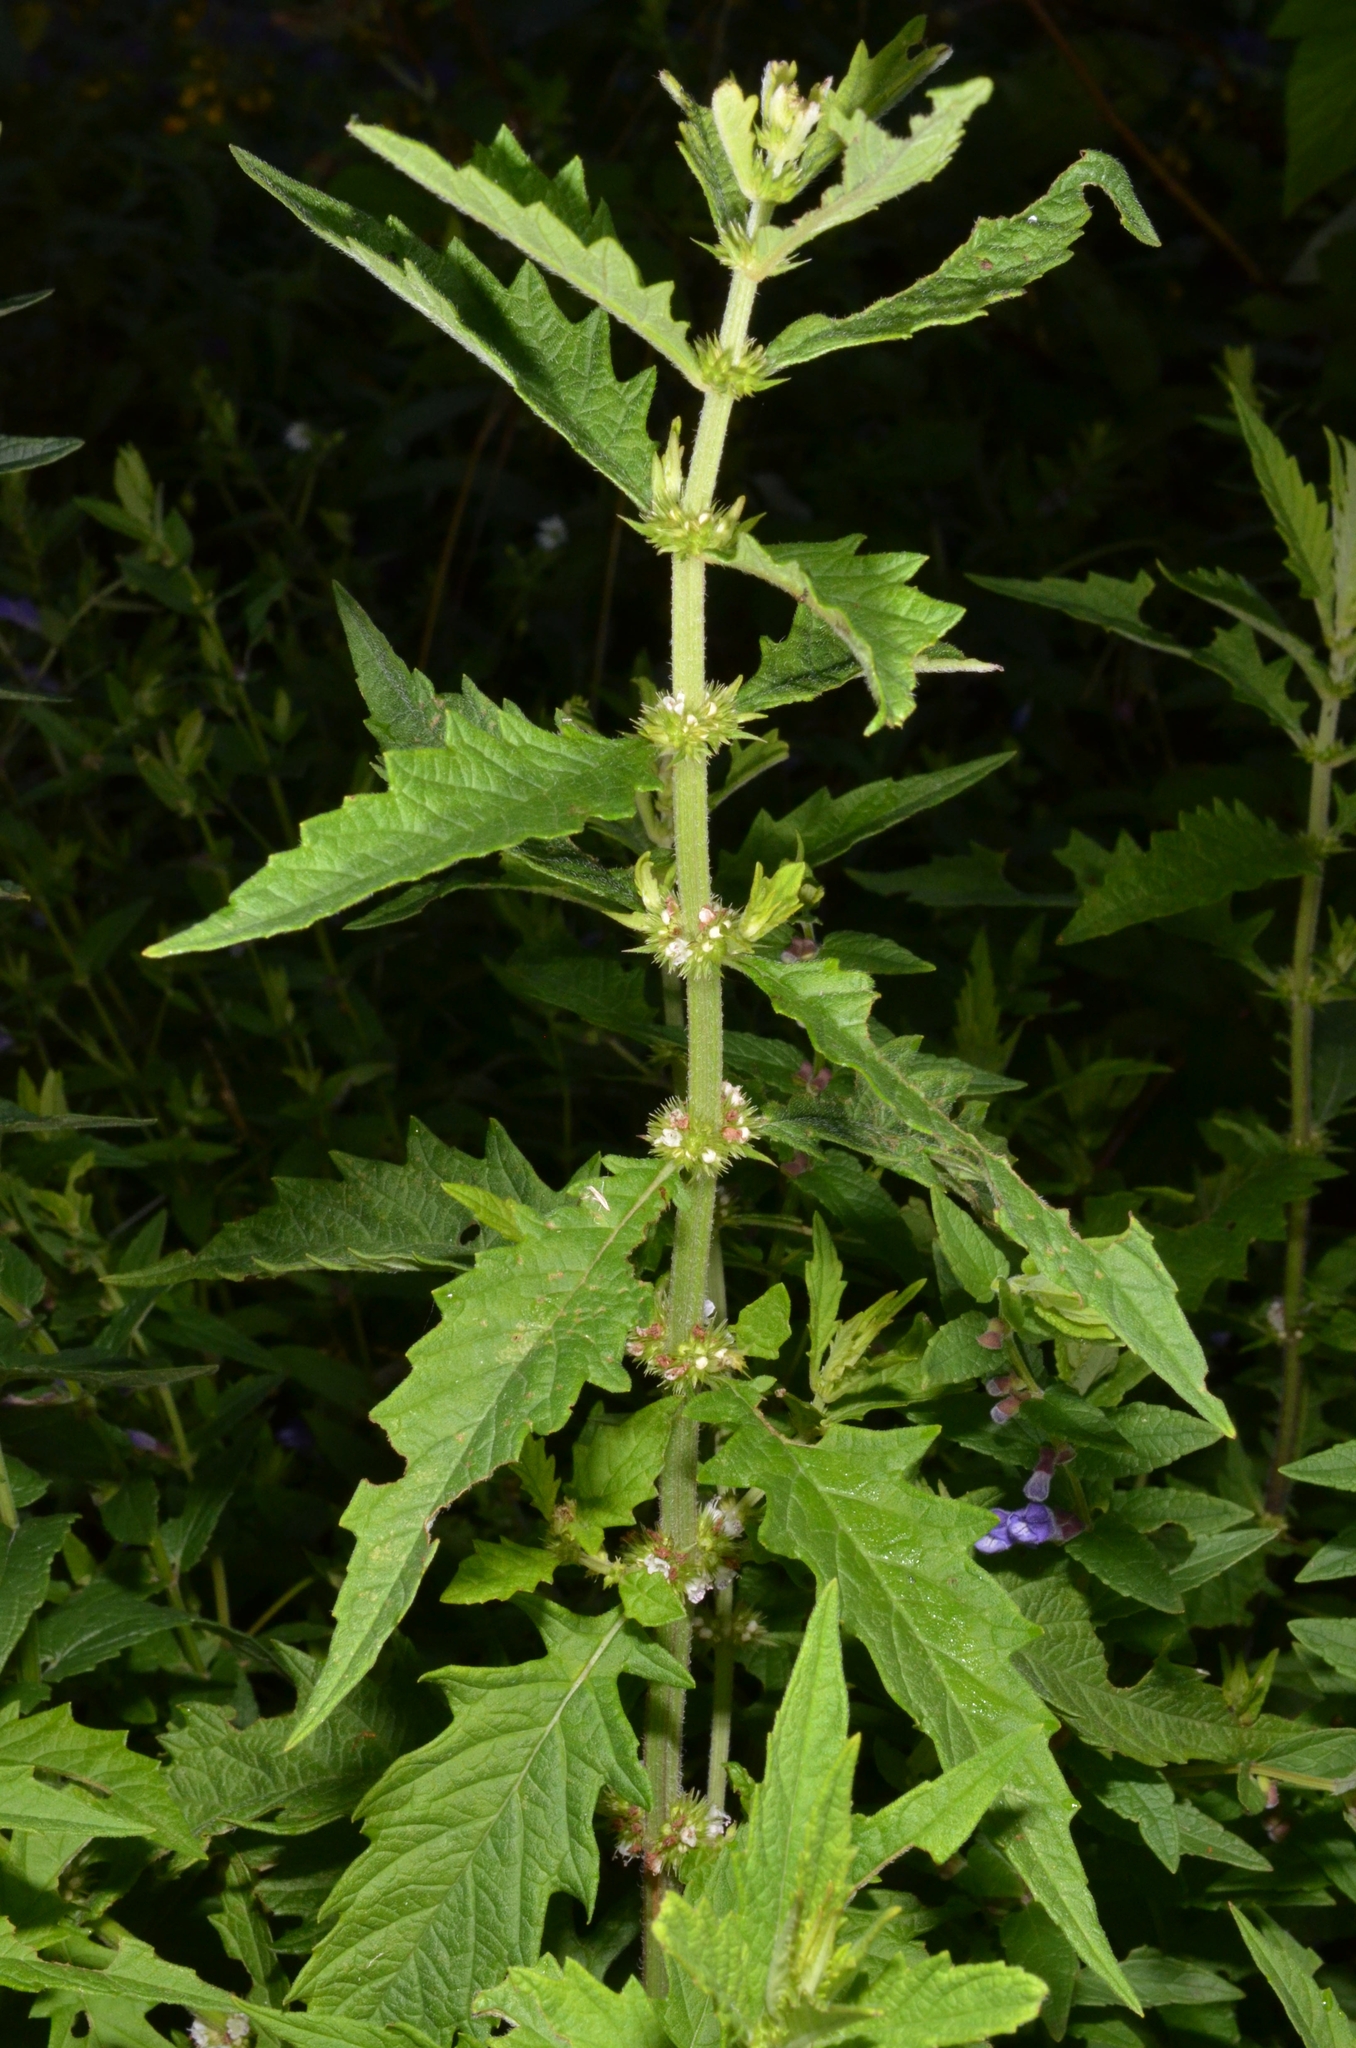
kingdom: Plantae
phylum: Tracheophyta
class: Magnoliopsida
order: Lamiales
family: Lamiaceae
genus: Lycopus
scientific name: Lycopus europaeus
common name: European bugleweed
